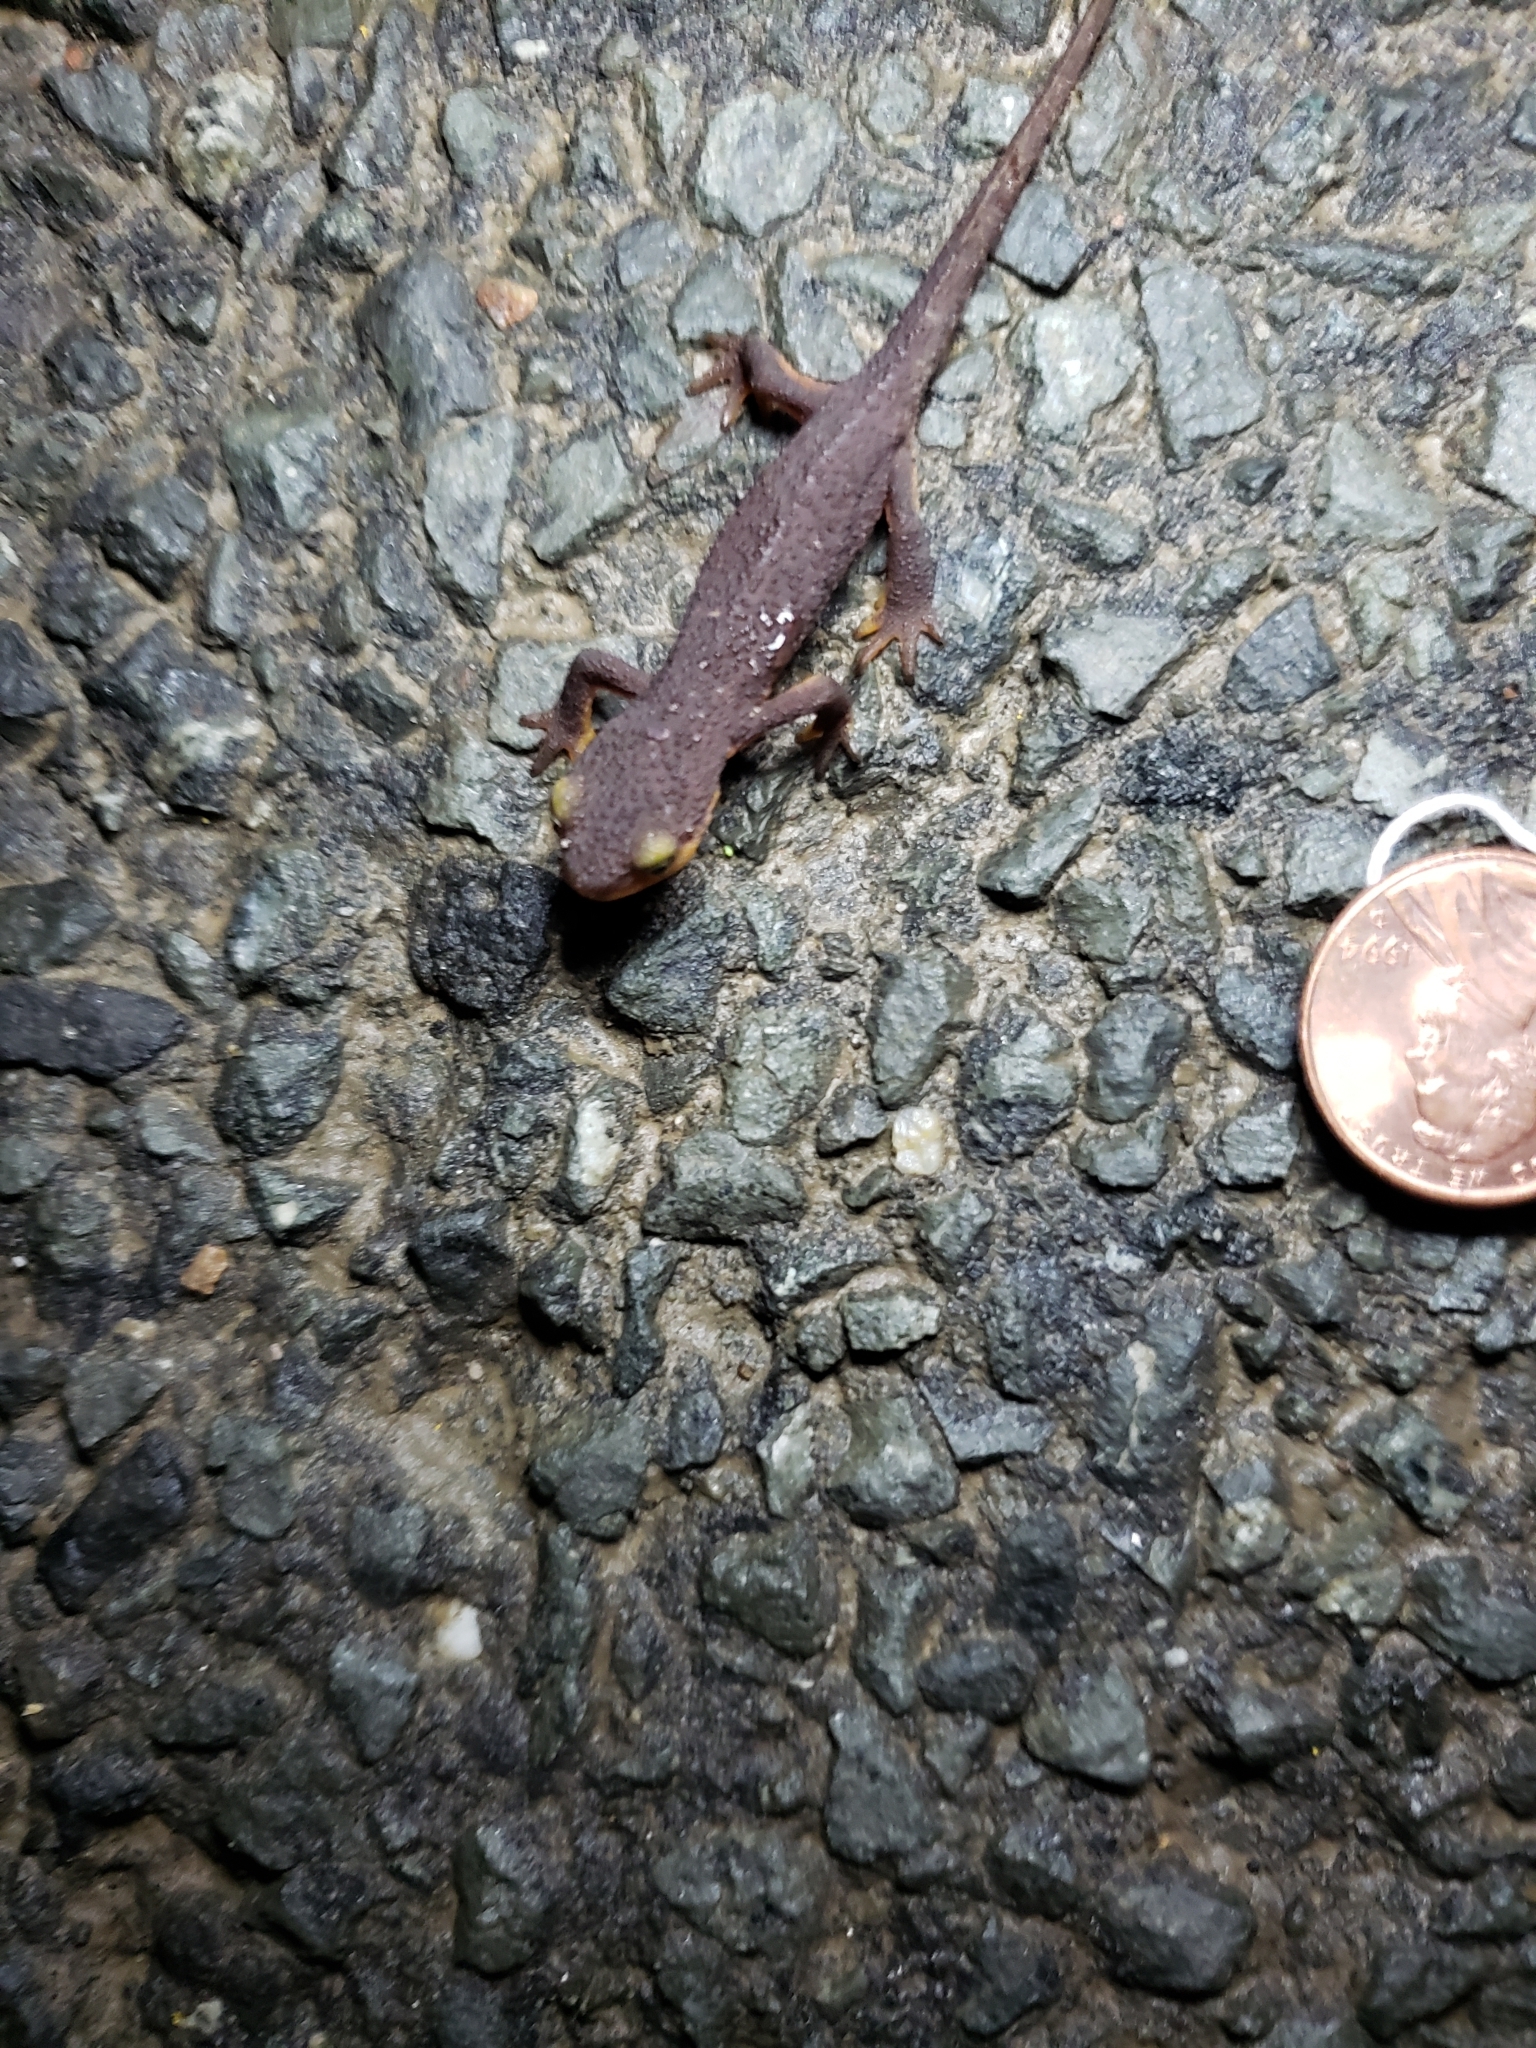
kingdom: Animalia
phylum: Chordata
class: Amphibia
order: Caudata
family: Salamandridae
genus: Taricha
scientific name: Taricha torosa
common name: California newt
